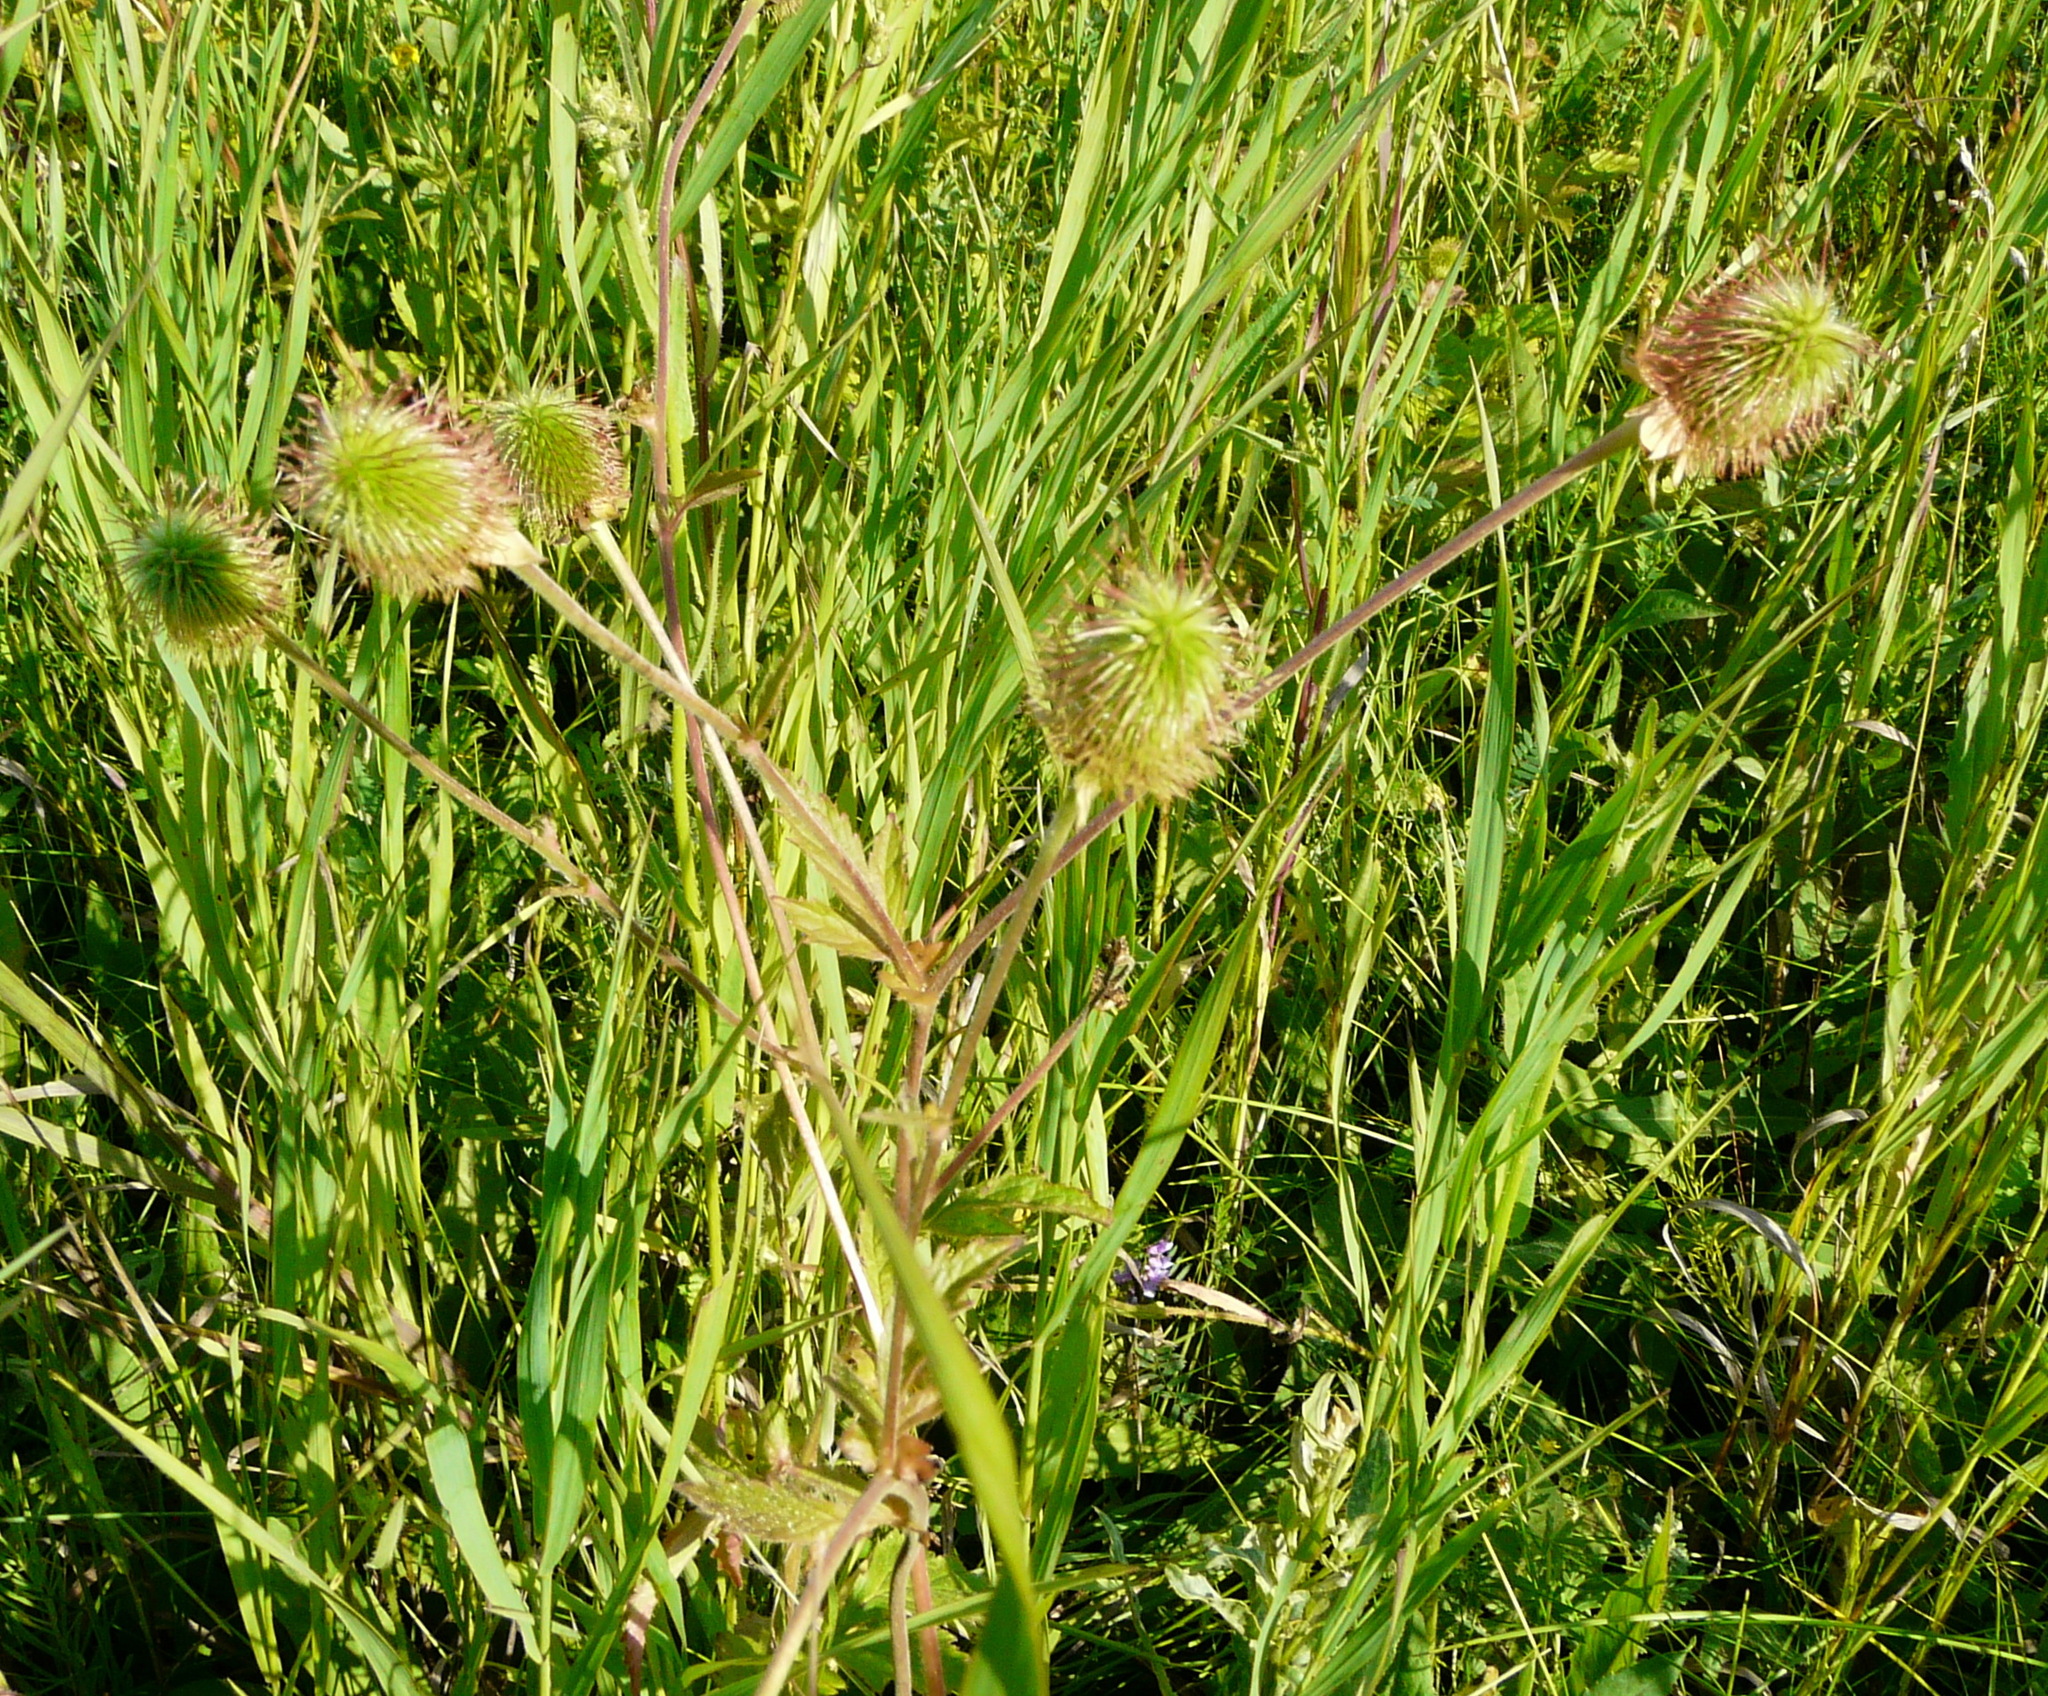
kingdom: Plantae
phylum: Tracheophyta
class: Magnoliopsida
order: Rosales
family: Rosaceae
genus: Geum
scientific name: Geum aleppicum
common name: Yellow avens
